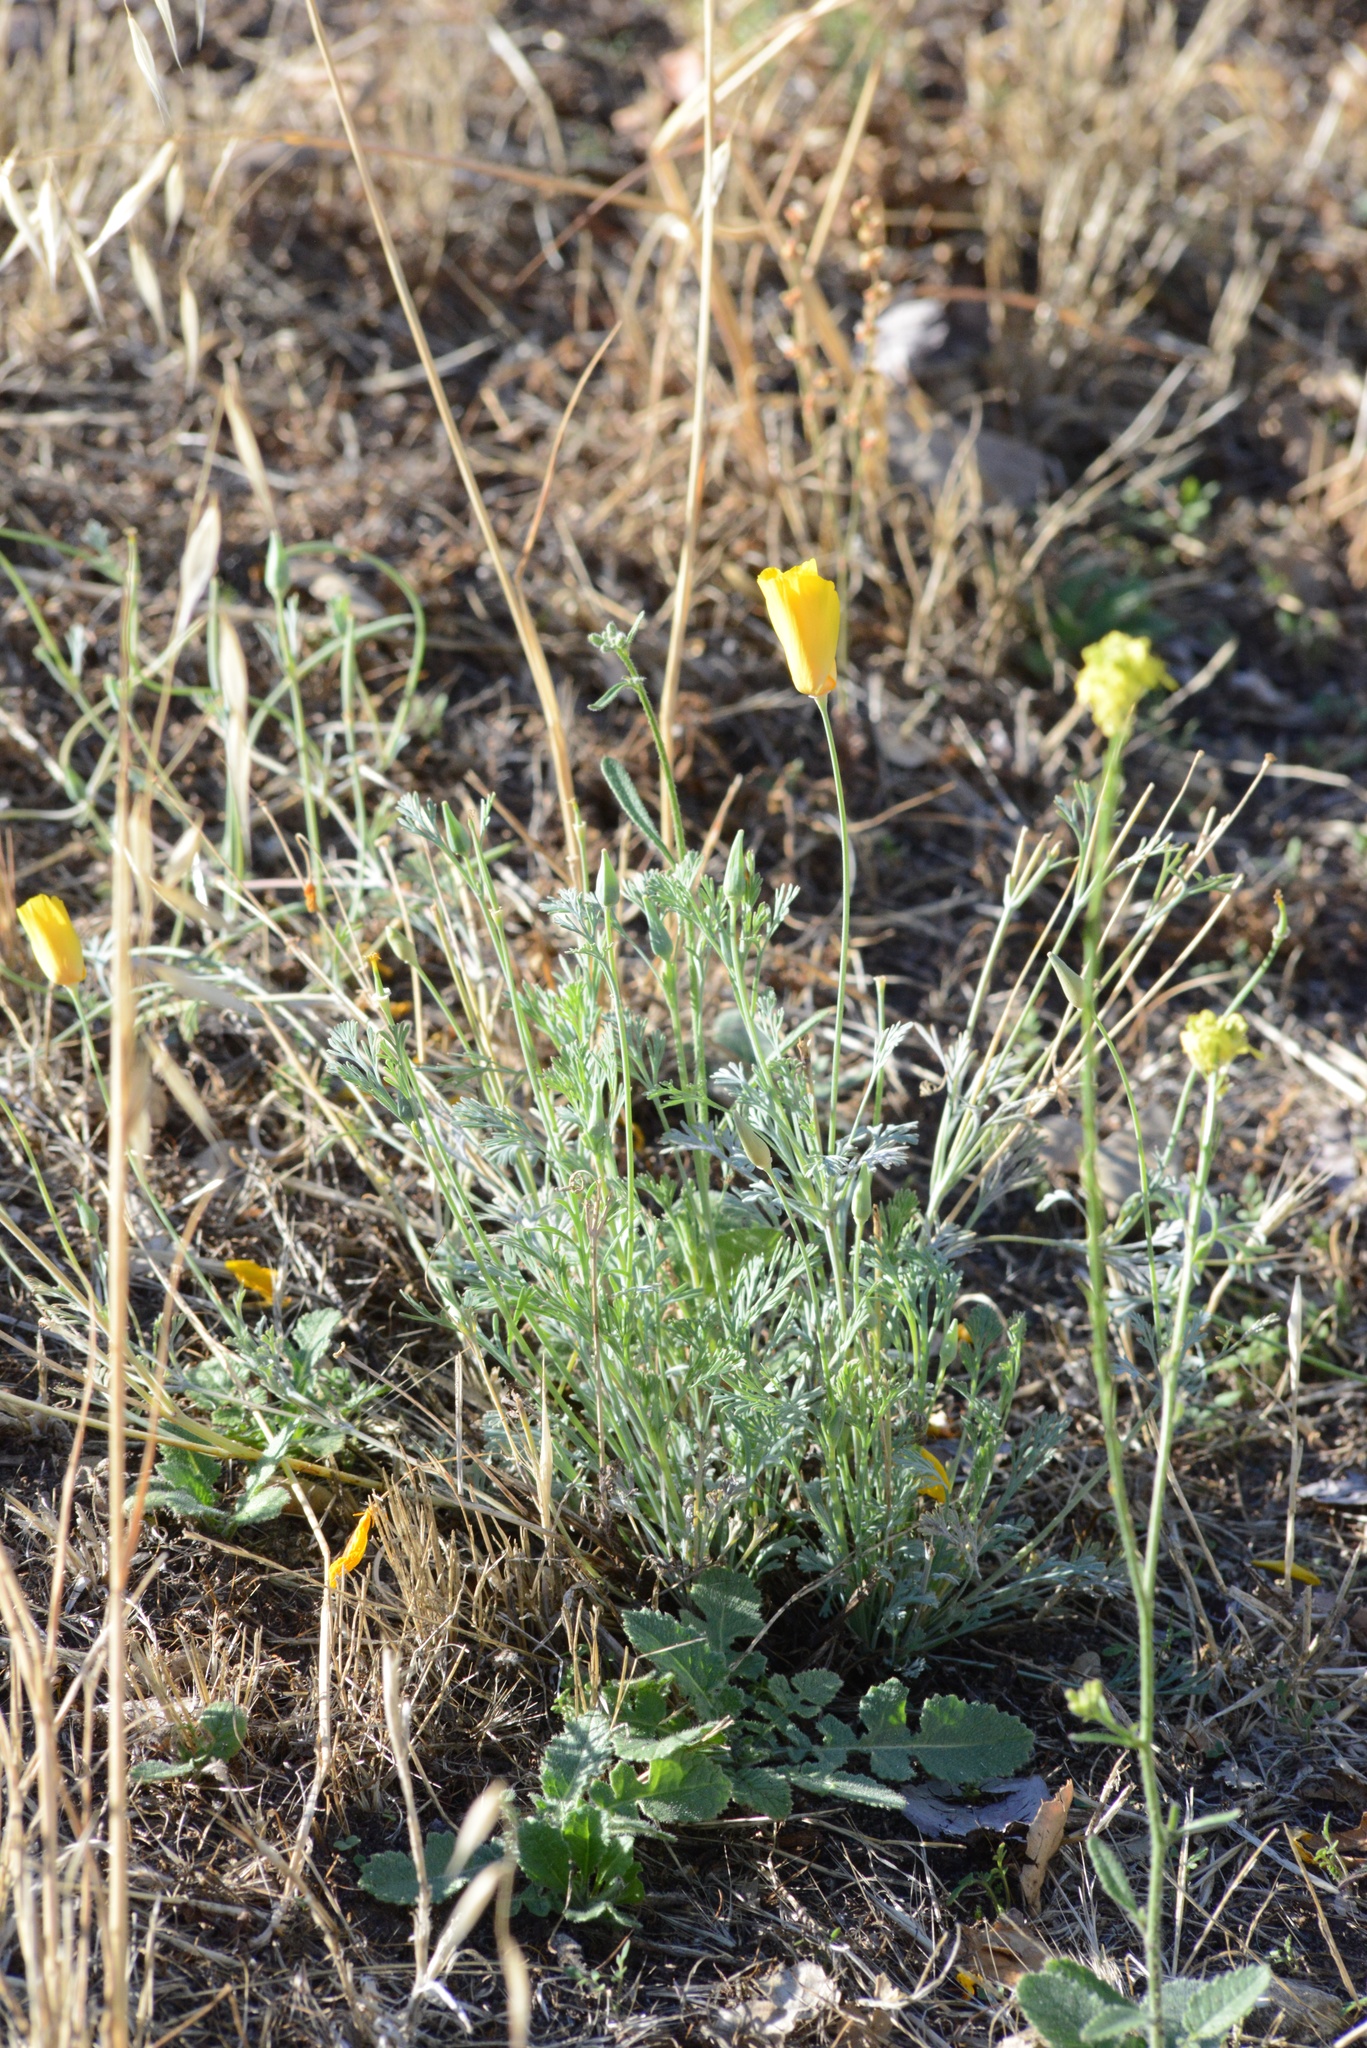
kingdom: Plantae
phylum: Tracheophyta
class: Magnoliopsida
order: Ranunculales
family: Papaveraceae
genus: Eschscholzia
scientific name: Eschscholzia californica
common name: California poppy
